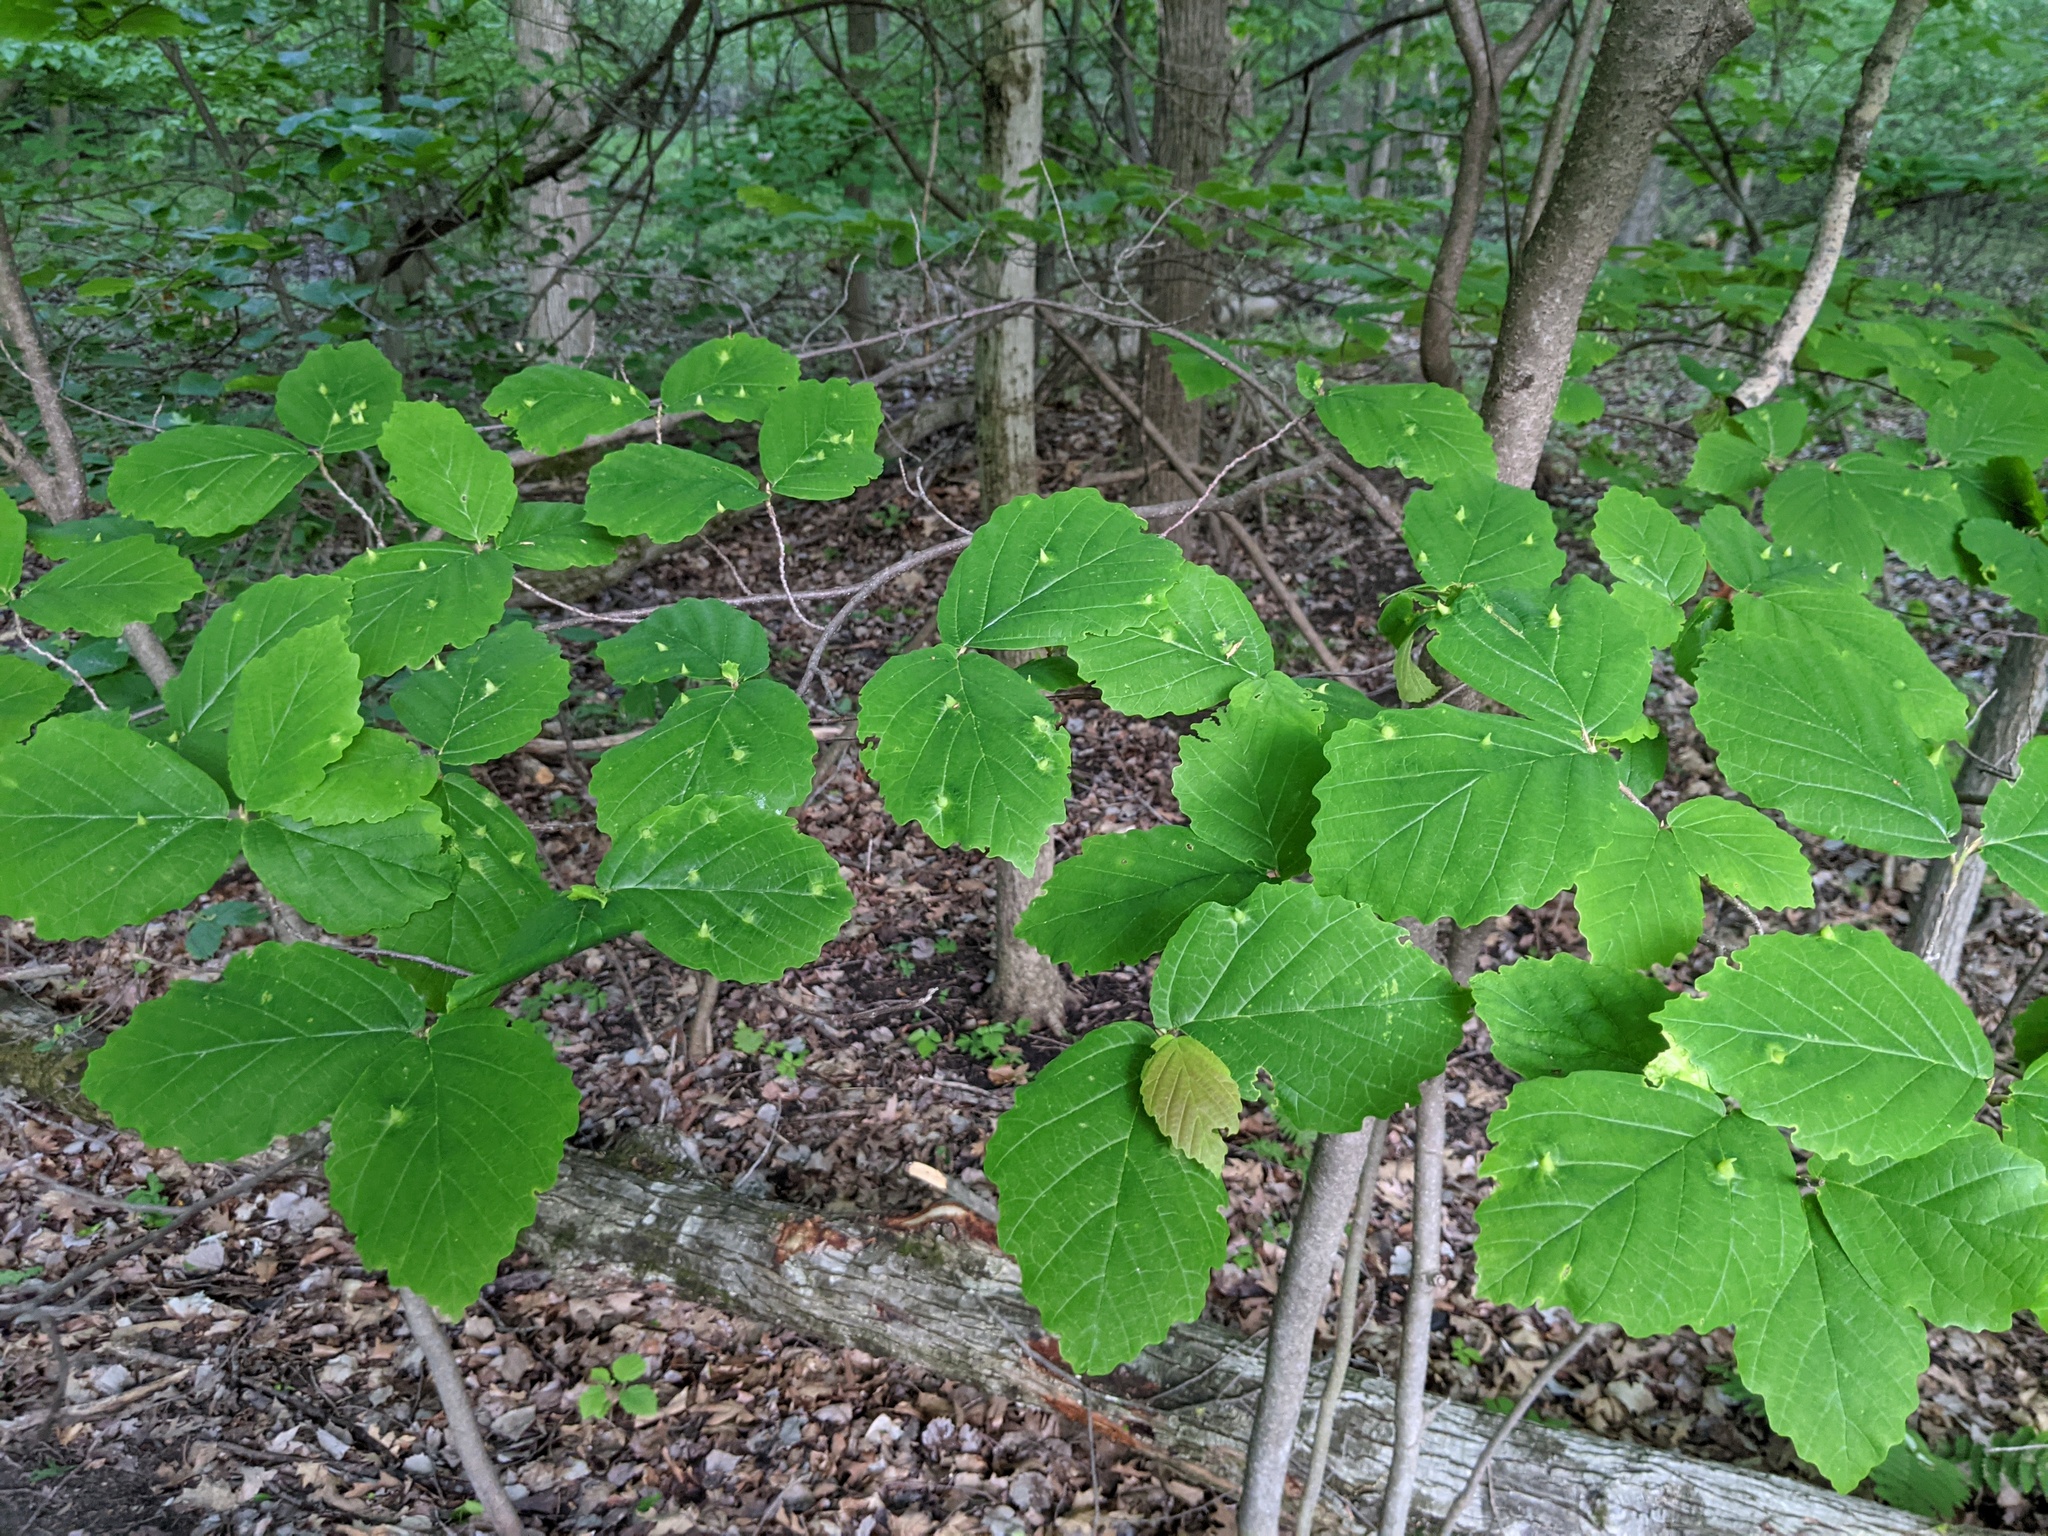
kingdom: Plantae
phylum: Tracheophyta
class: Magnoliopsida
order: Saxifragales
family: Hamamelidaceae
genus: Hamamelis
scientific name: Hamamelis virginiana
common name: Witch-hazel
